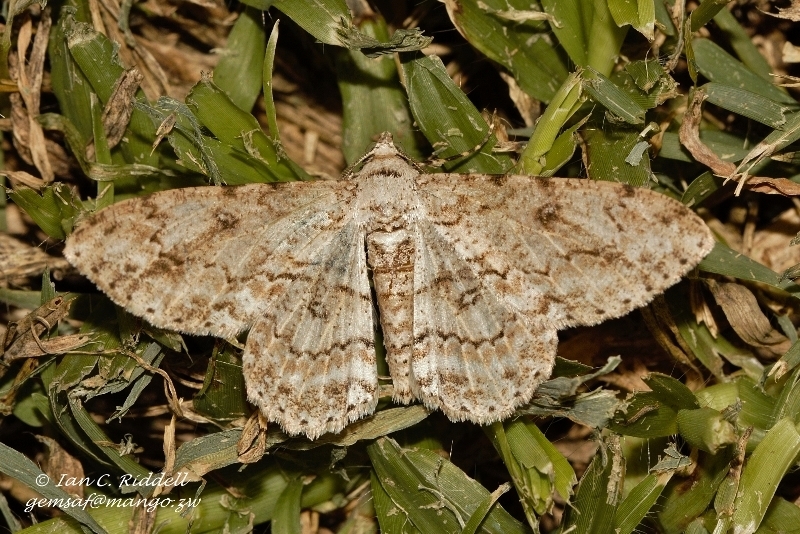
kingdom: Animalia
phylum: Arthropoda
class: Insecta
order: Lepidoptera
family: Geometridae
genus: Ascotis
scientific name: Ascotis reciprocaria
